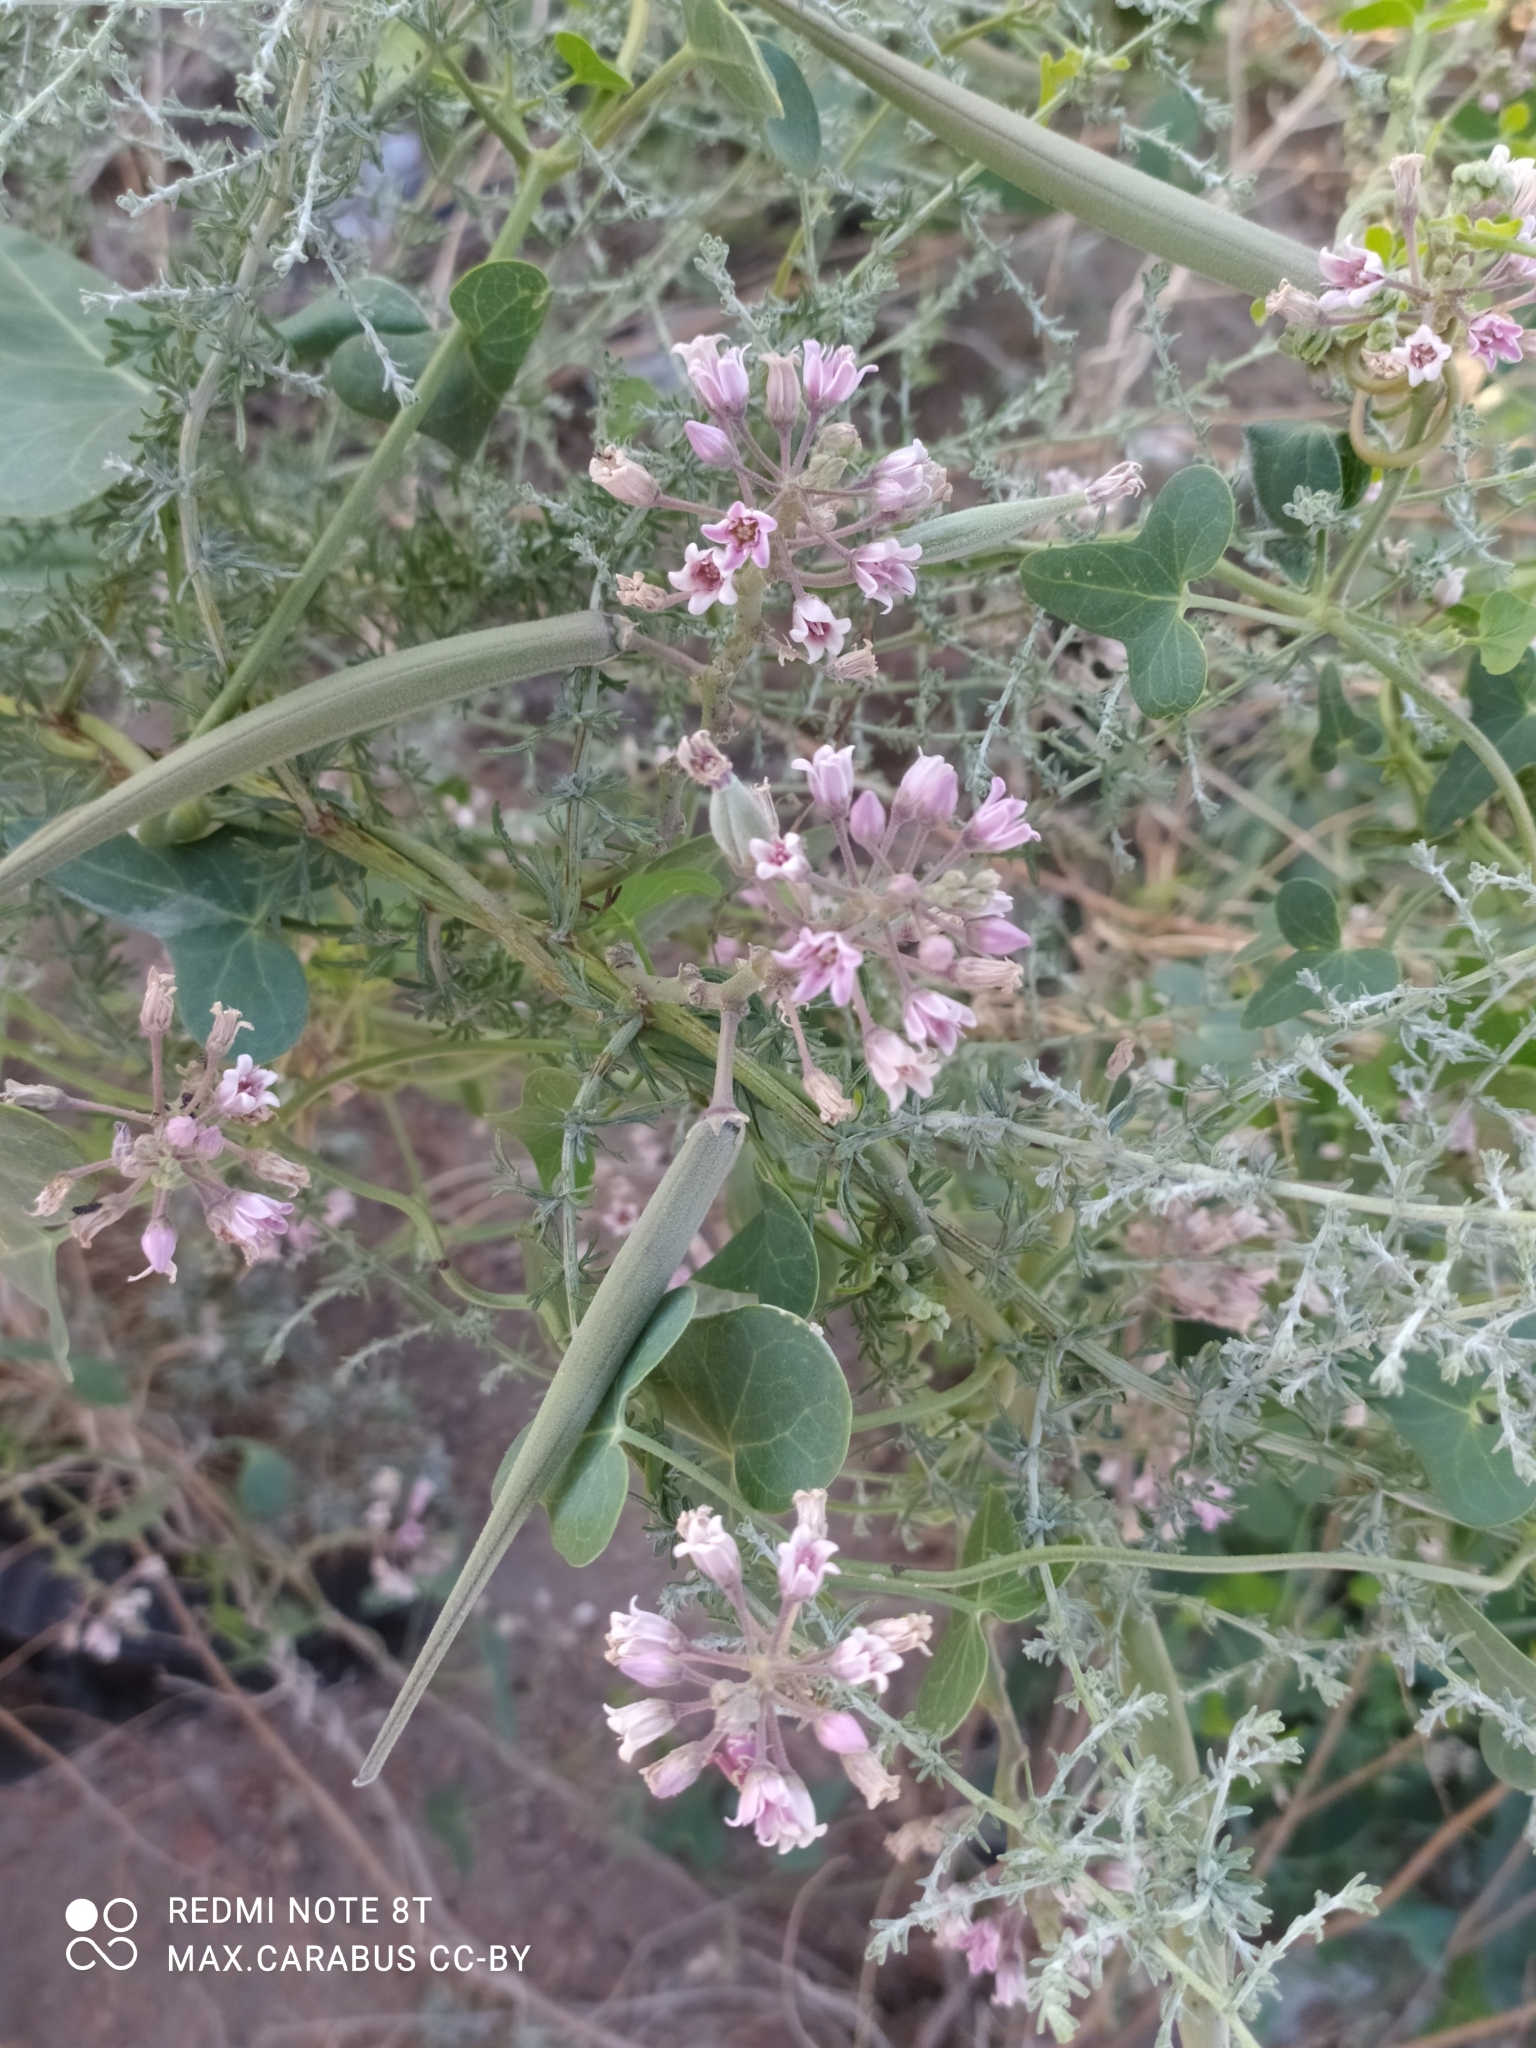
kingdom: Plantae
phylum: Tracheophyta
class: Magnoliopsida
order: Gentianales
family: Apocynaceae
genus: Cynanchum
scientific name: Cynanchum acutum
